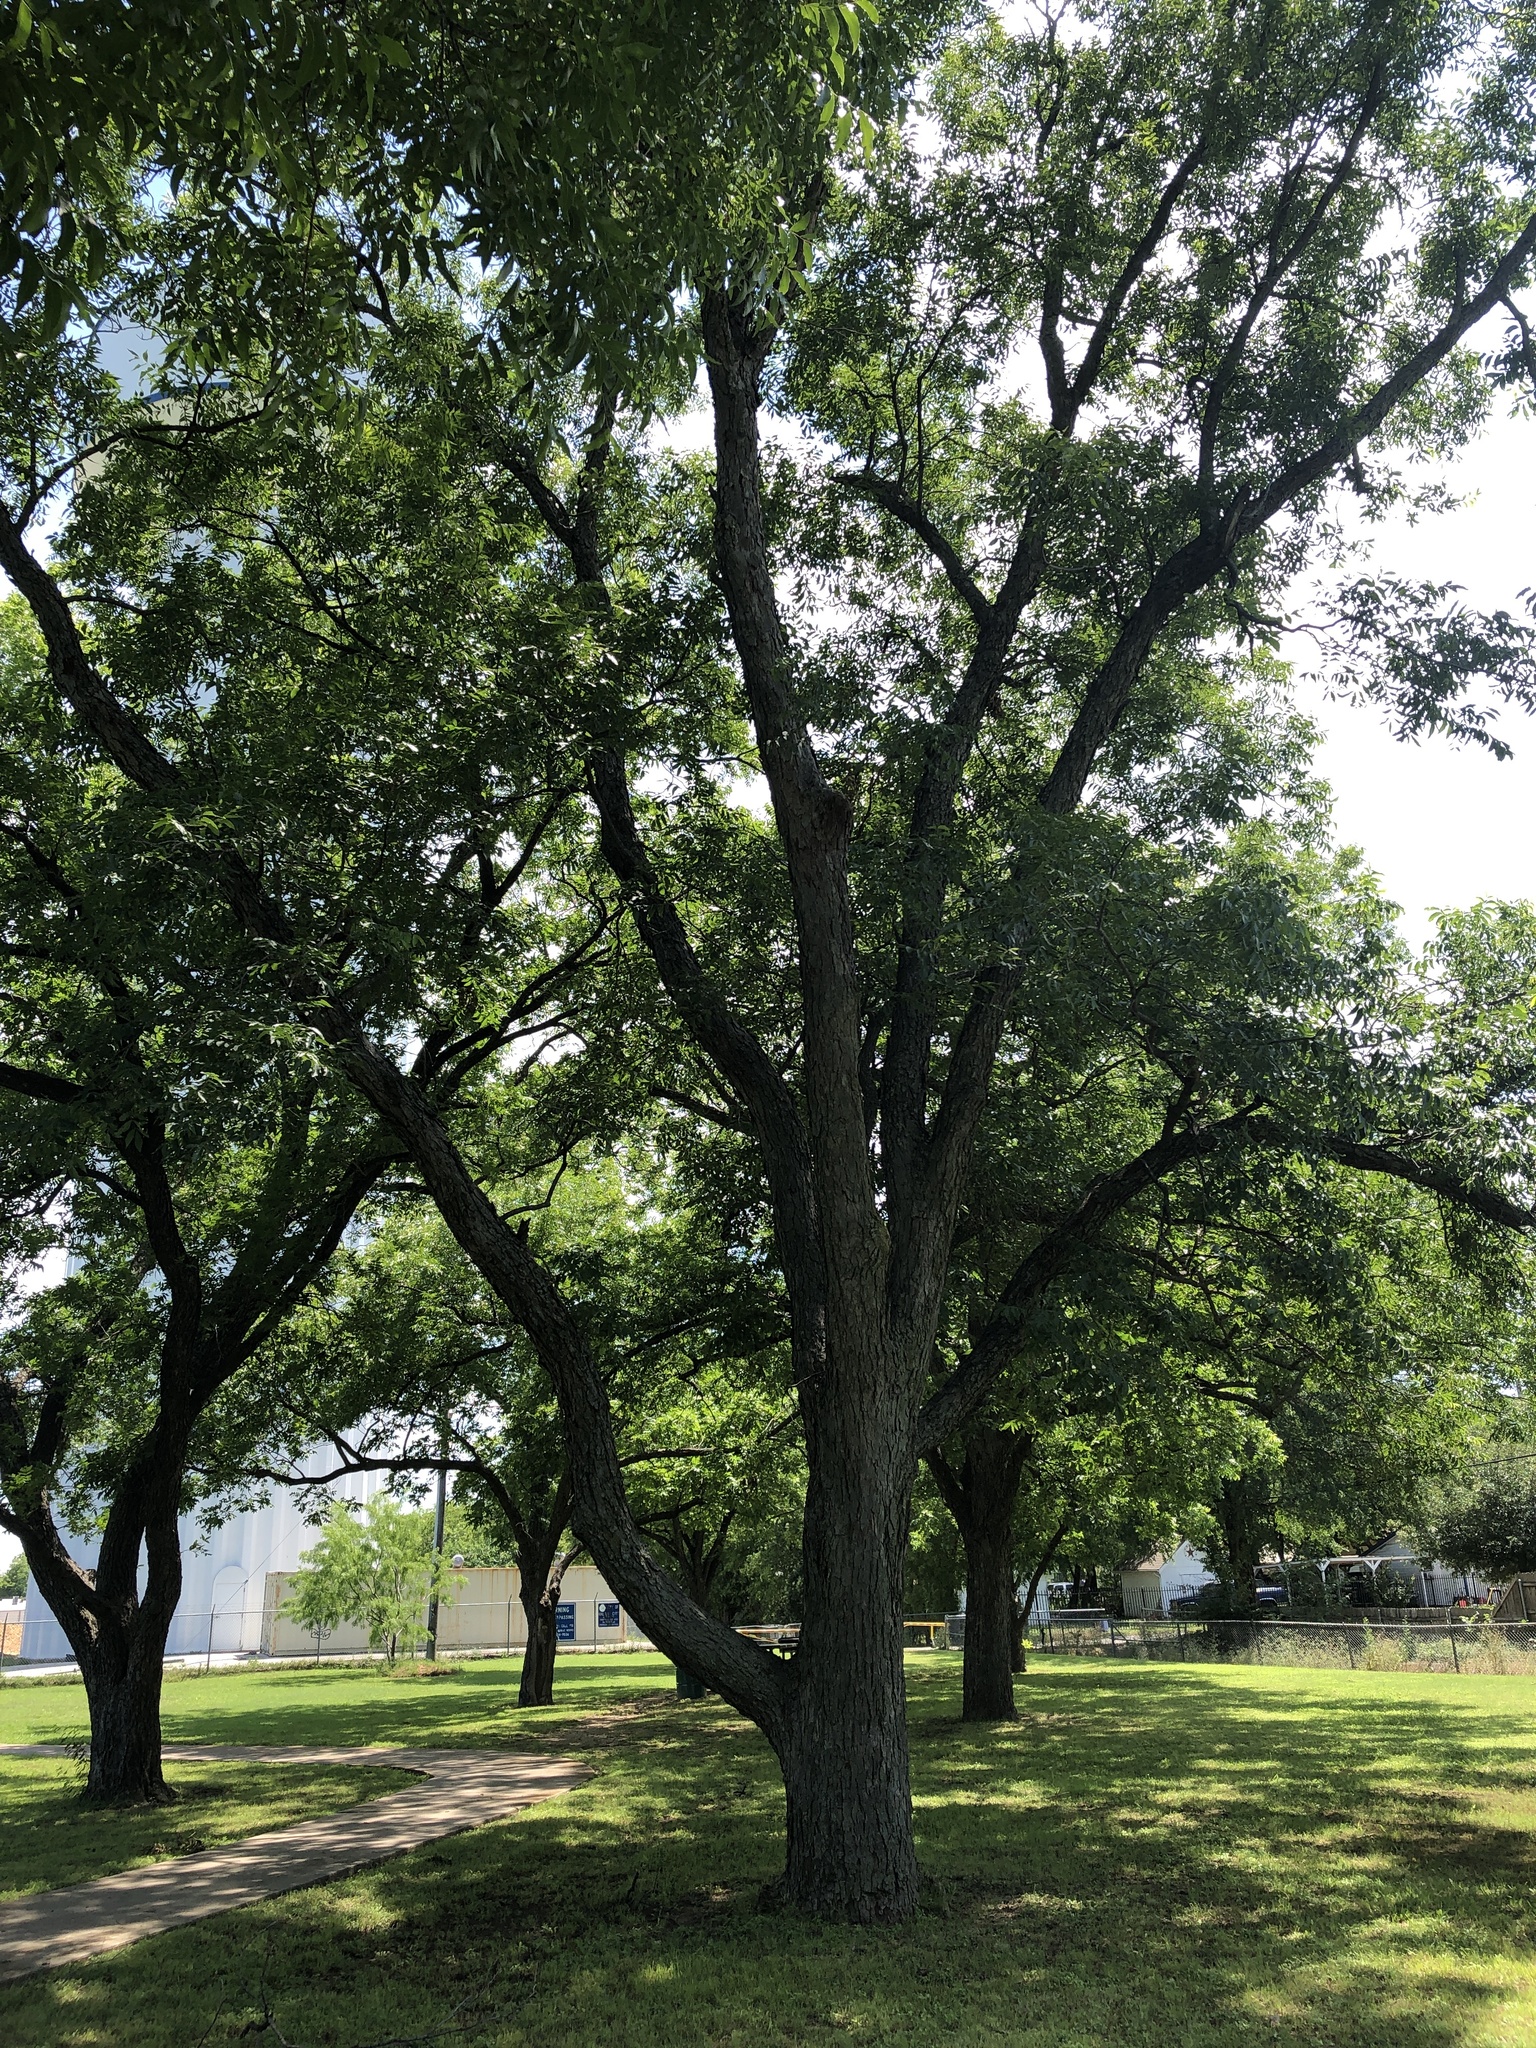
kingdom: Plantae
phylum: Tracheophyta
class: Magnoliopsida
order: Fagales
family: Juglandaceae
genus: Carya
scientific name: Carya illinoinensis
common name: Pecan
